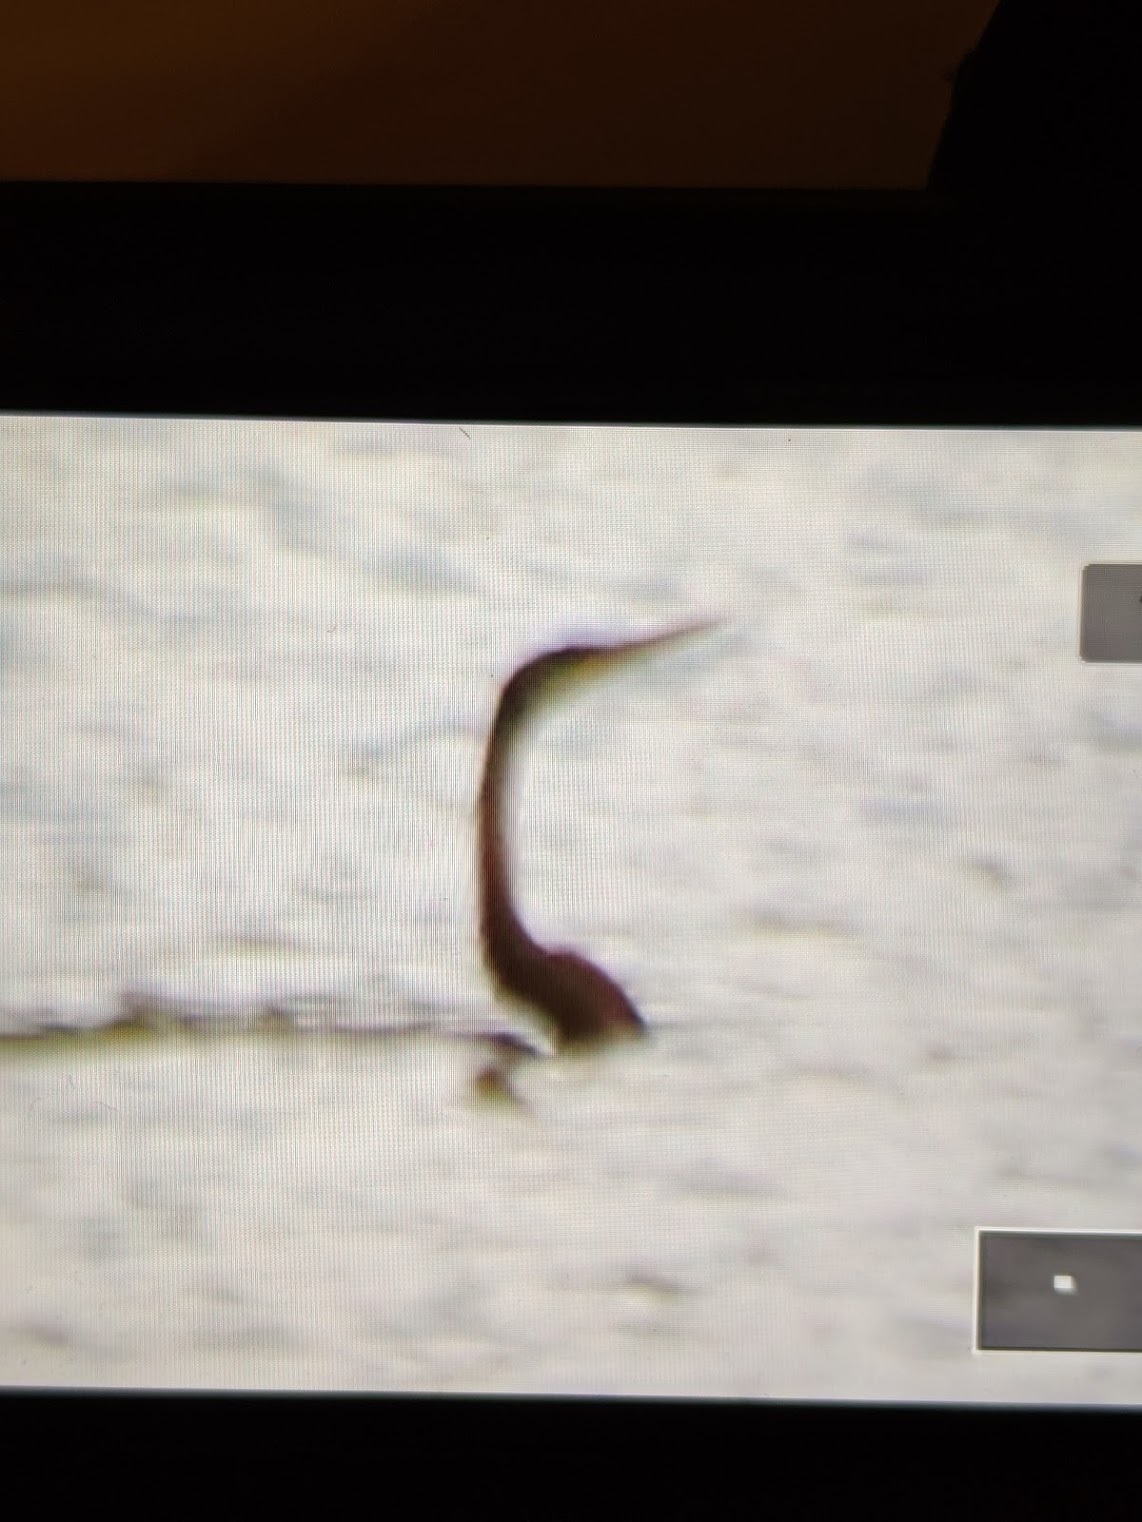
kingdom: Animalia
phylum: Chordata
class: Aves
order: Suliformes
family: Anhingidae
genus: Anhinga
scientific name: Anhinga melanogaster
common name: Oriental darter
